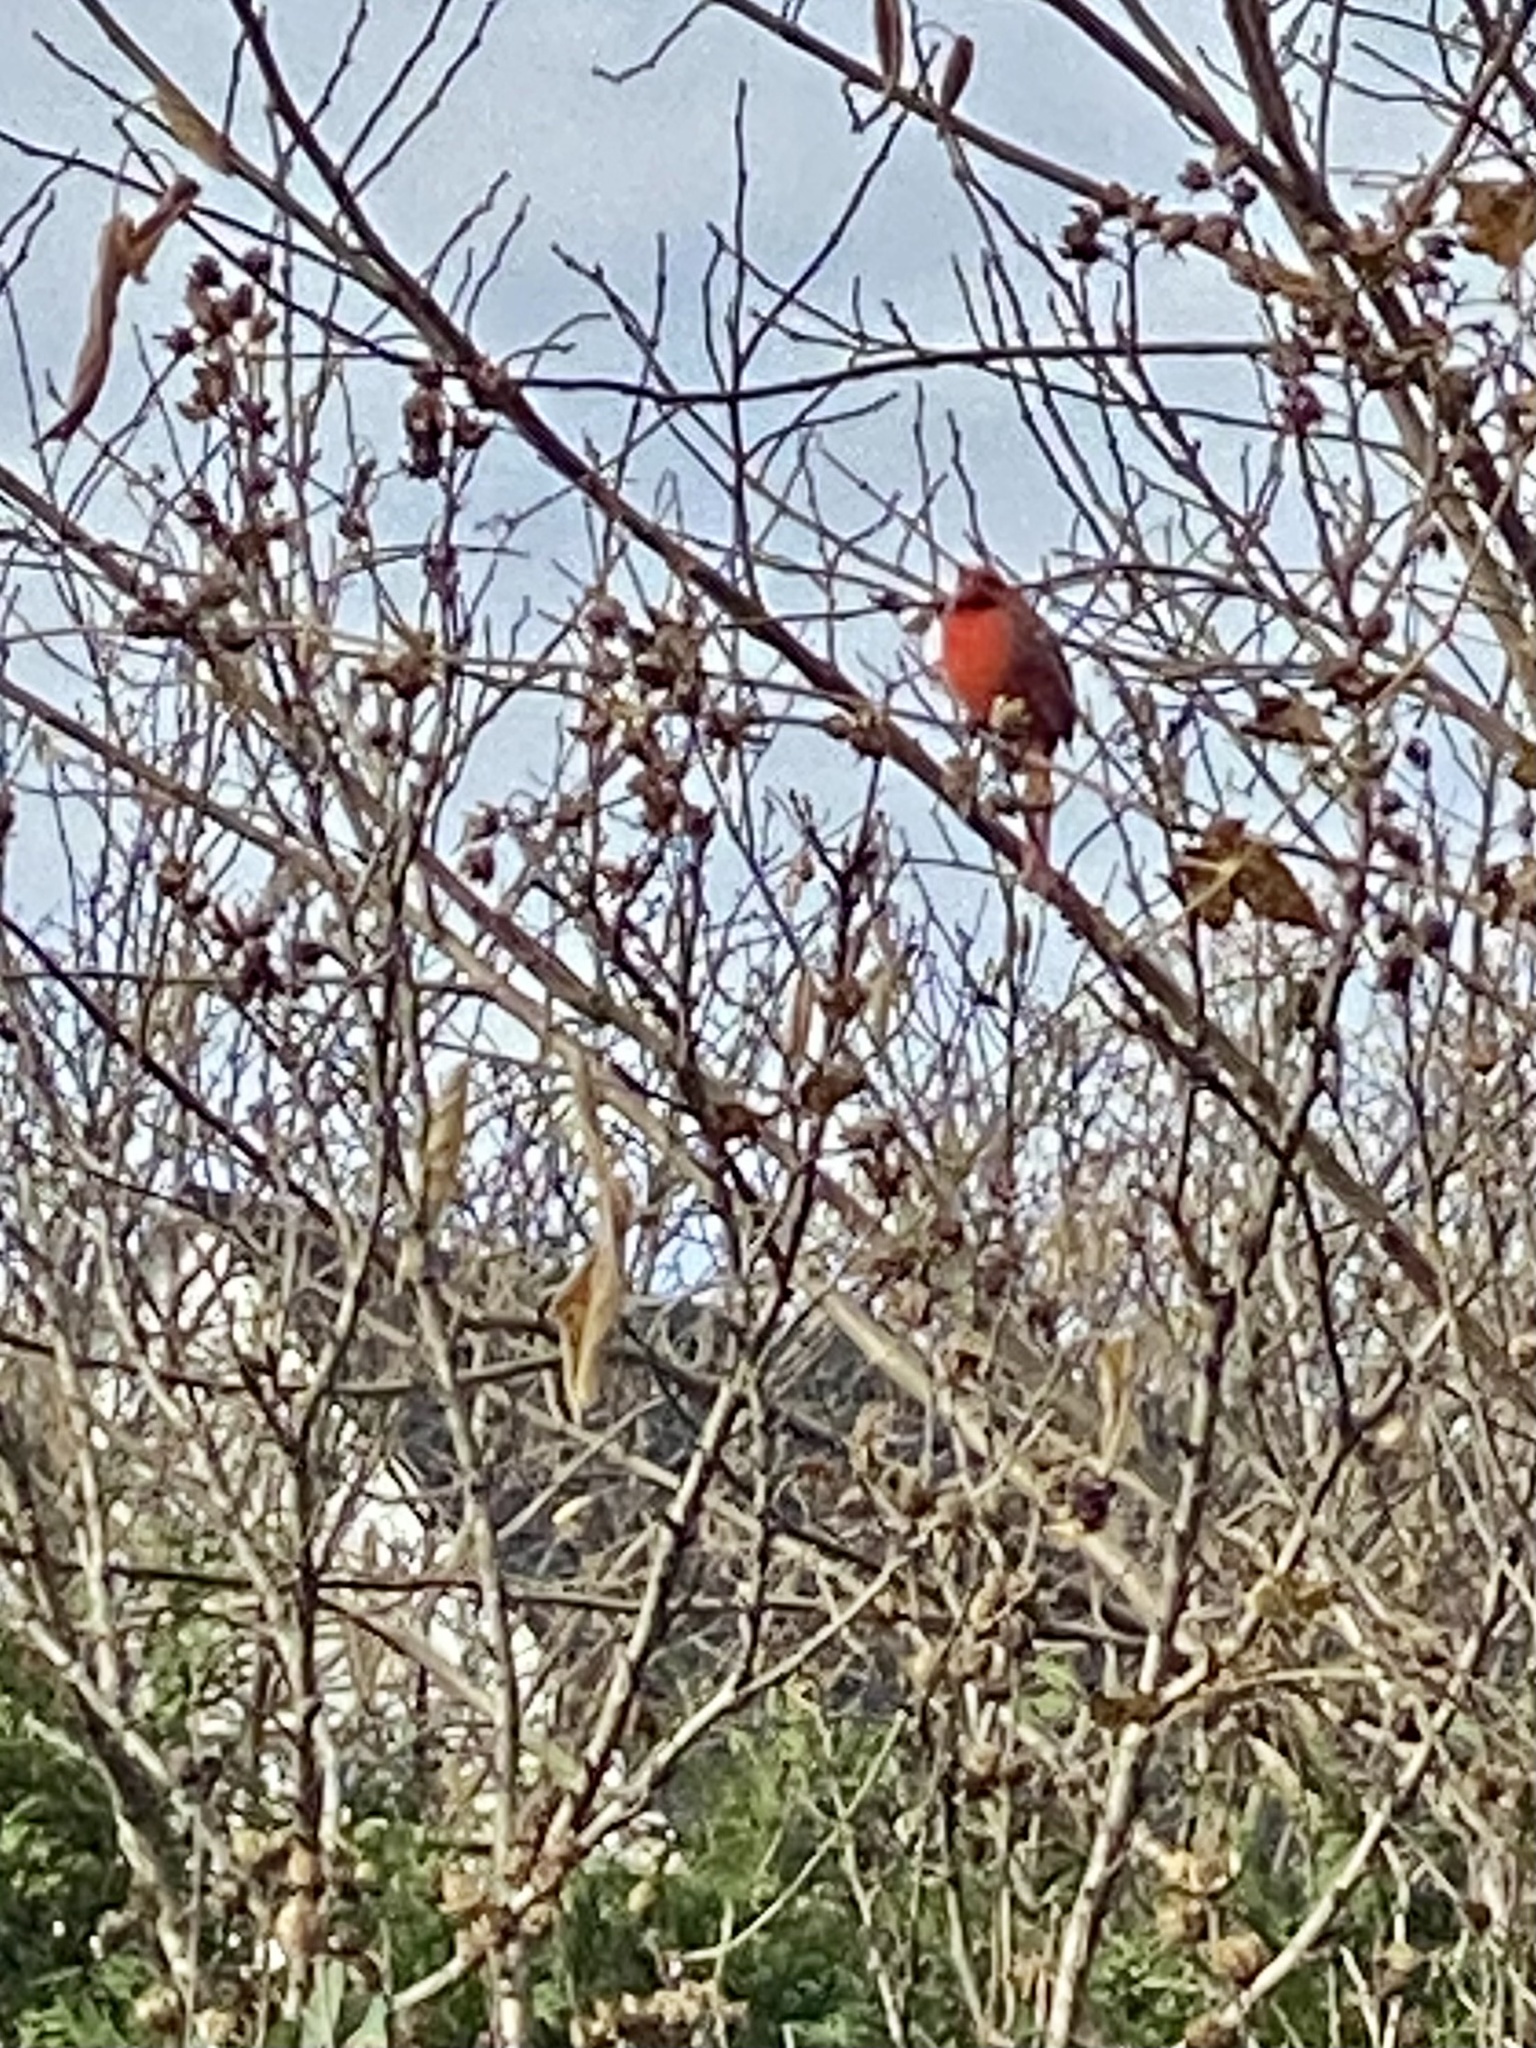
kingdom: Animalia
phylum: Chordata
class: Aves
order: Passeriformes
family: Cardinalidae
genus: Cardinalis
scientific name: Cardinalis cardinalis
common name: Northern cardinal
